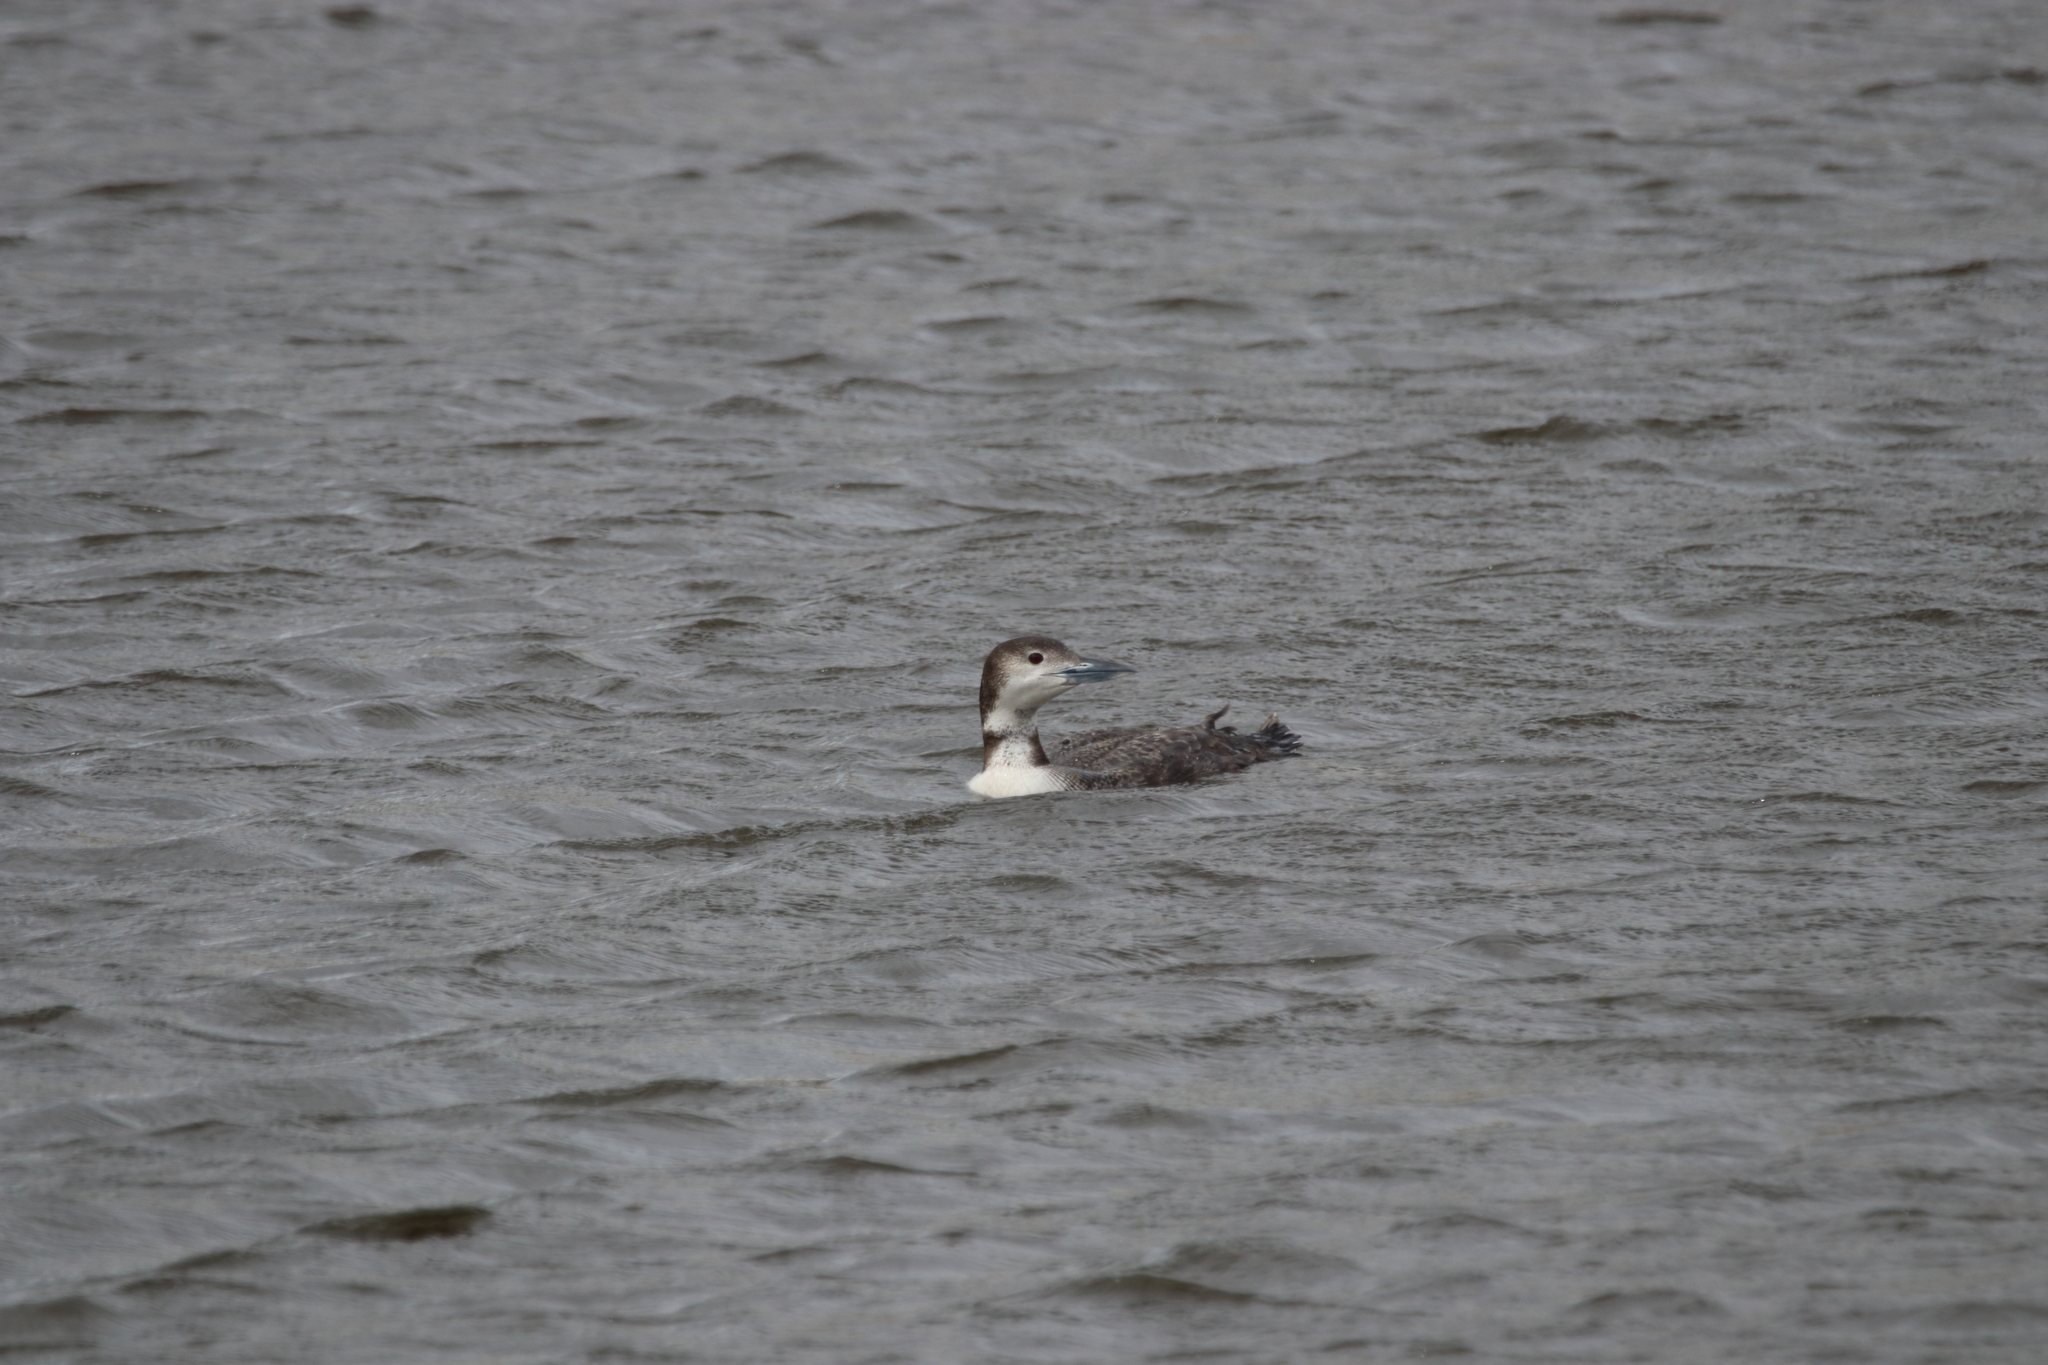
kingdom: Animalia
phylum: Chordata
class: Aves
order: Gaviiformes
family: Gaviidae
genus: Gavia
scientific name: Gavia immer
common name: Common loon
